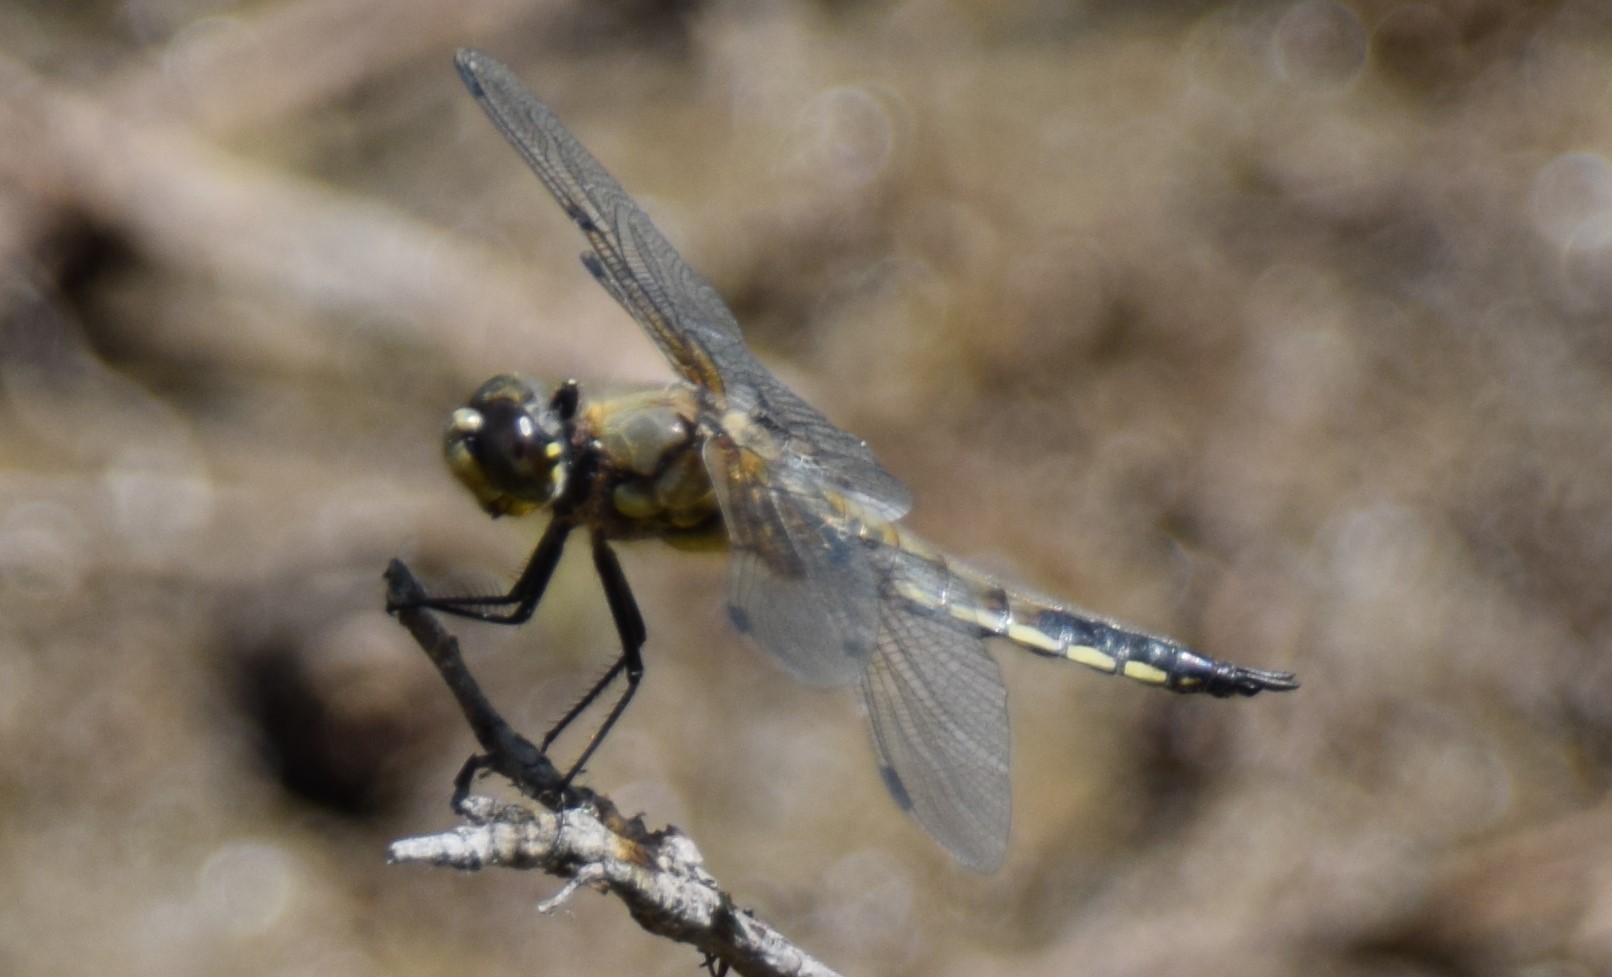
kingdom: Animalia
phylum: Arthropoda
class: Insecta
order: Odonata
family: Libellulidae
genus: Libellula
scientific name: Libellula quadrimaculata
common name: Four-spotted chaser
